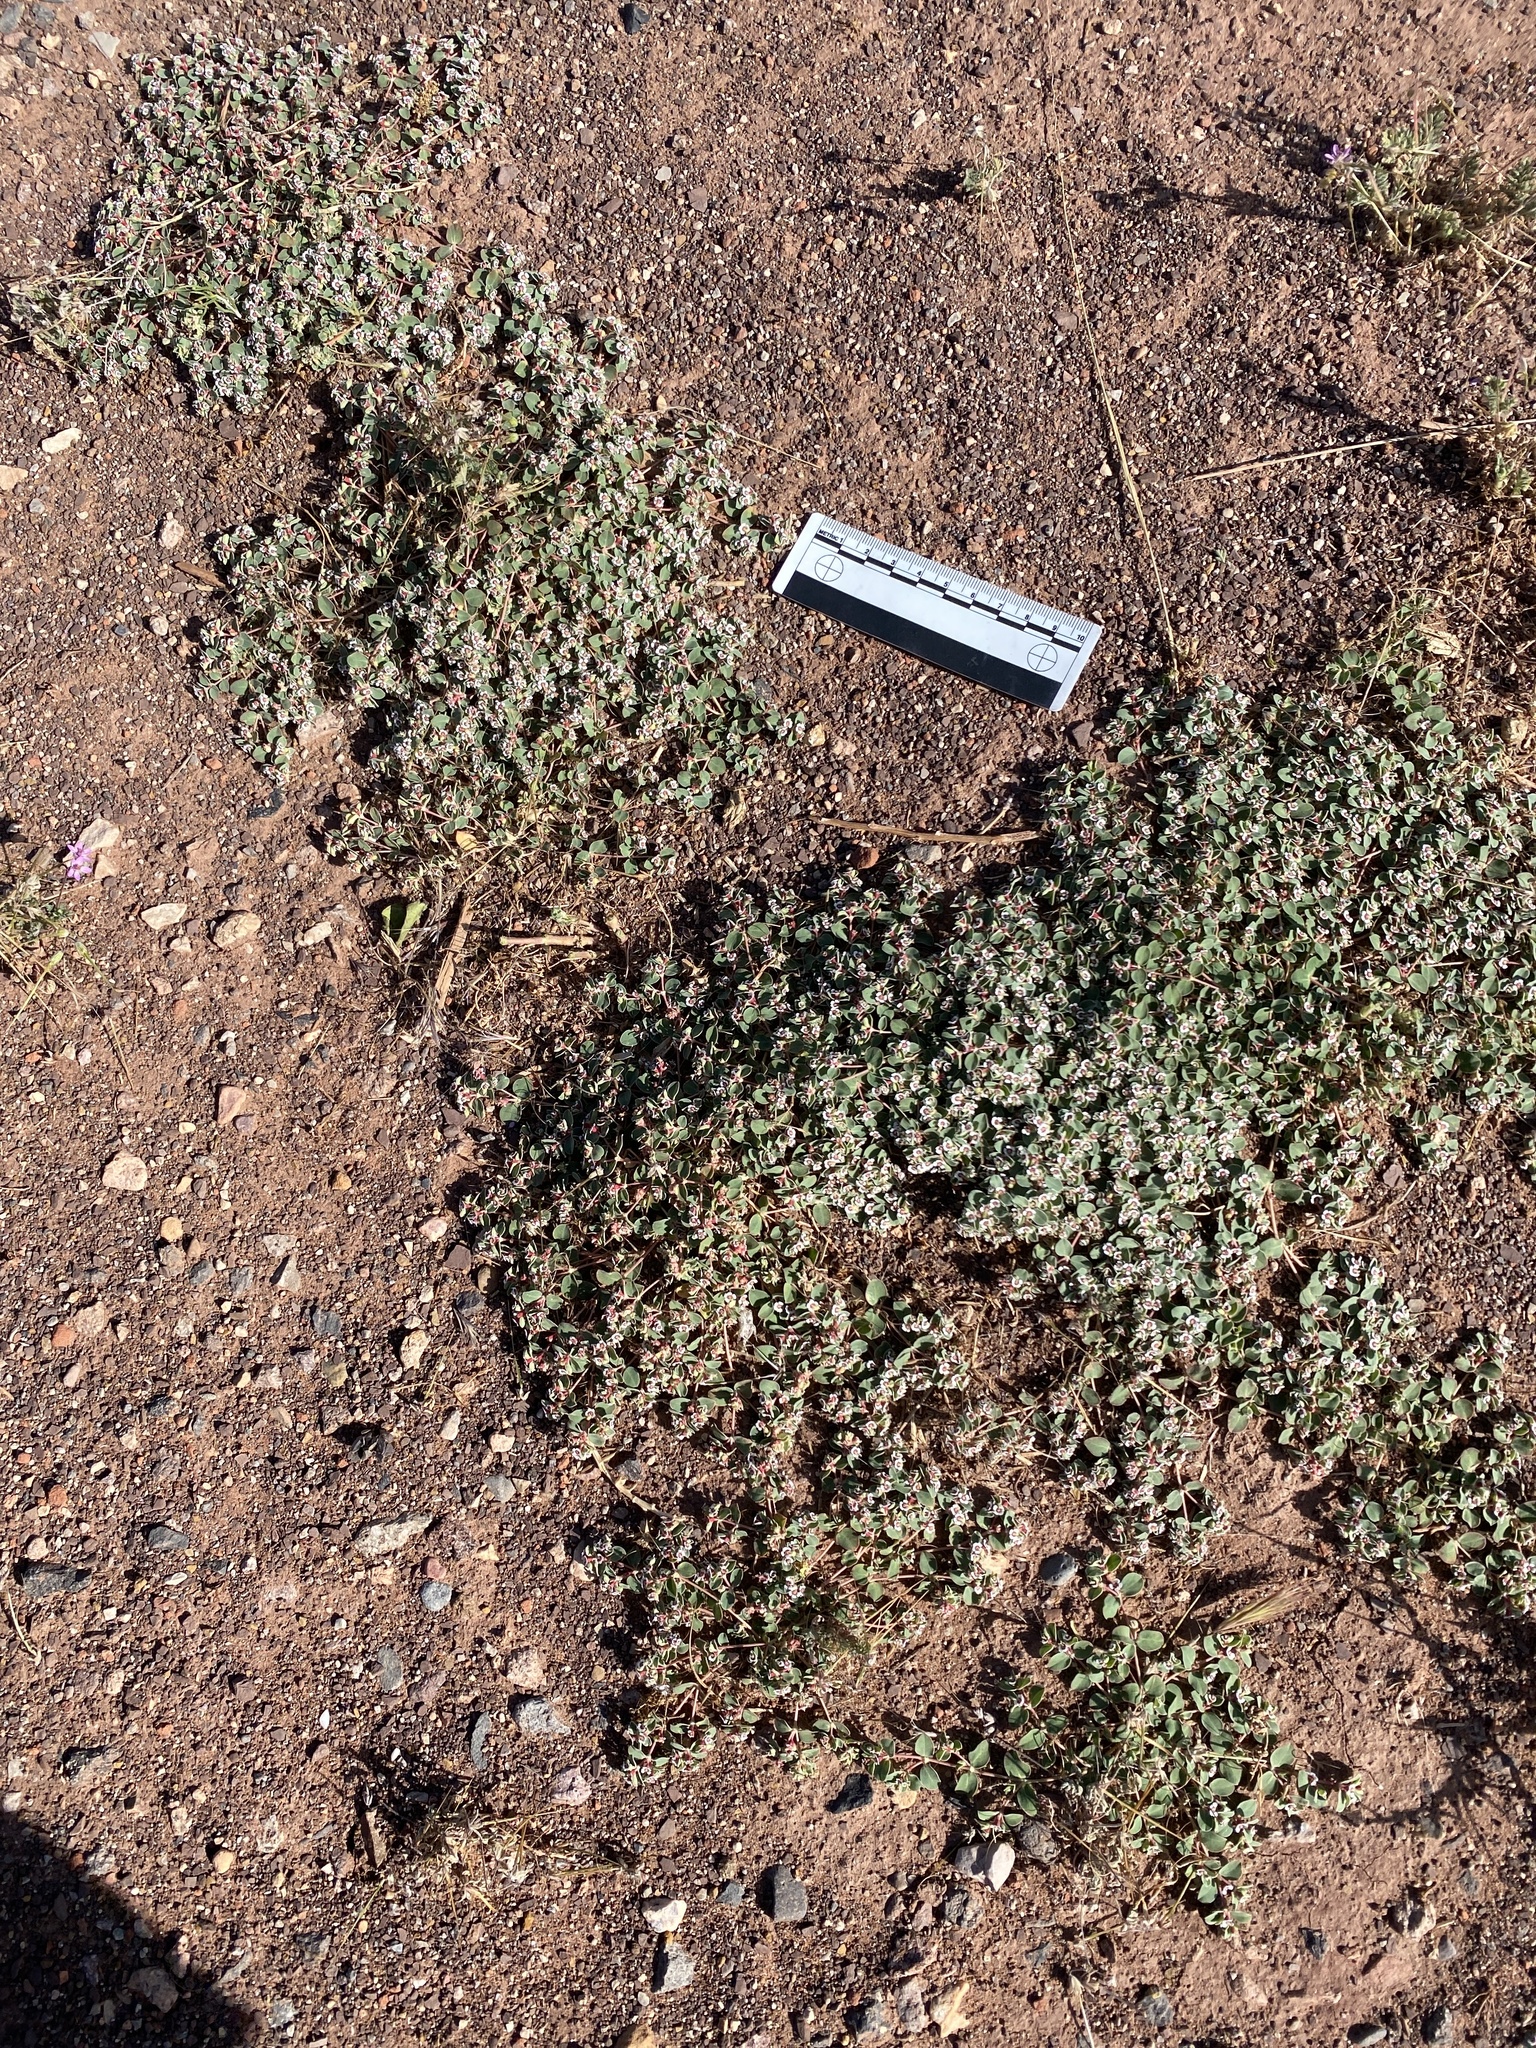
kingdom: Plantae
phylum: Tracheophyta
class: Magnoliopsida
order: Malpighiales
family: Euphorbiaceae
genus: Euphorbia
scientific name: Euphorbia albomarginata
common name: Whitemargin sandmat
